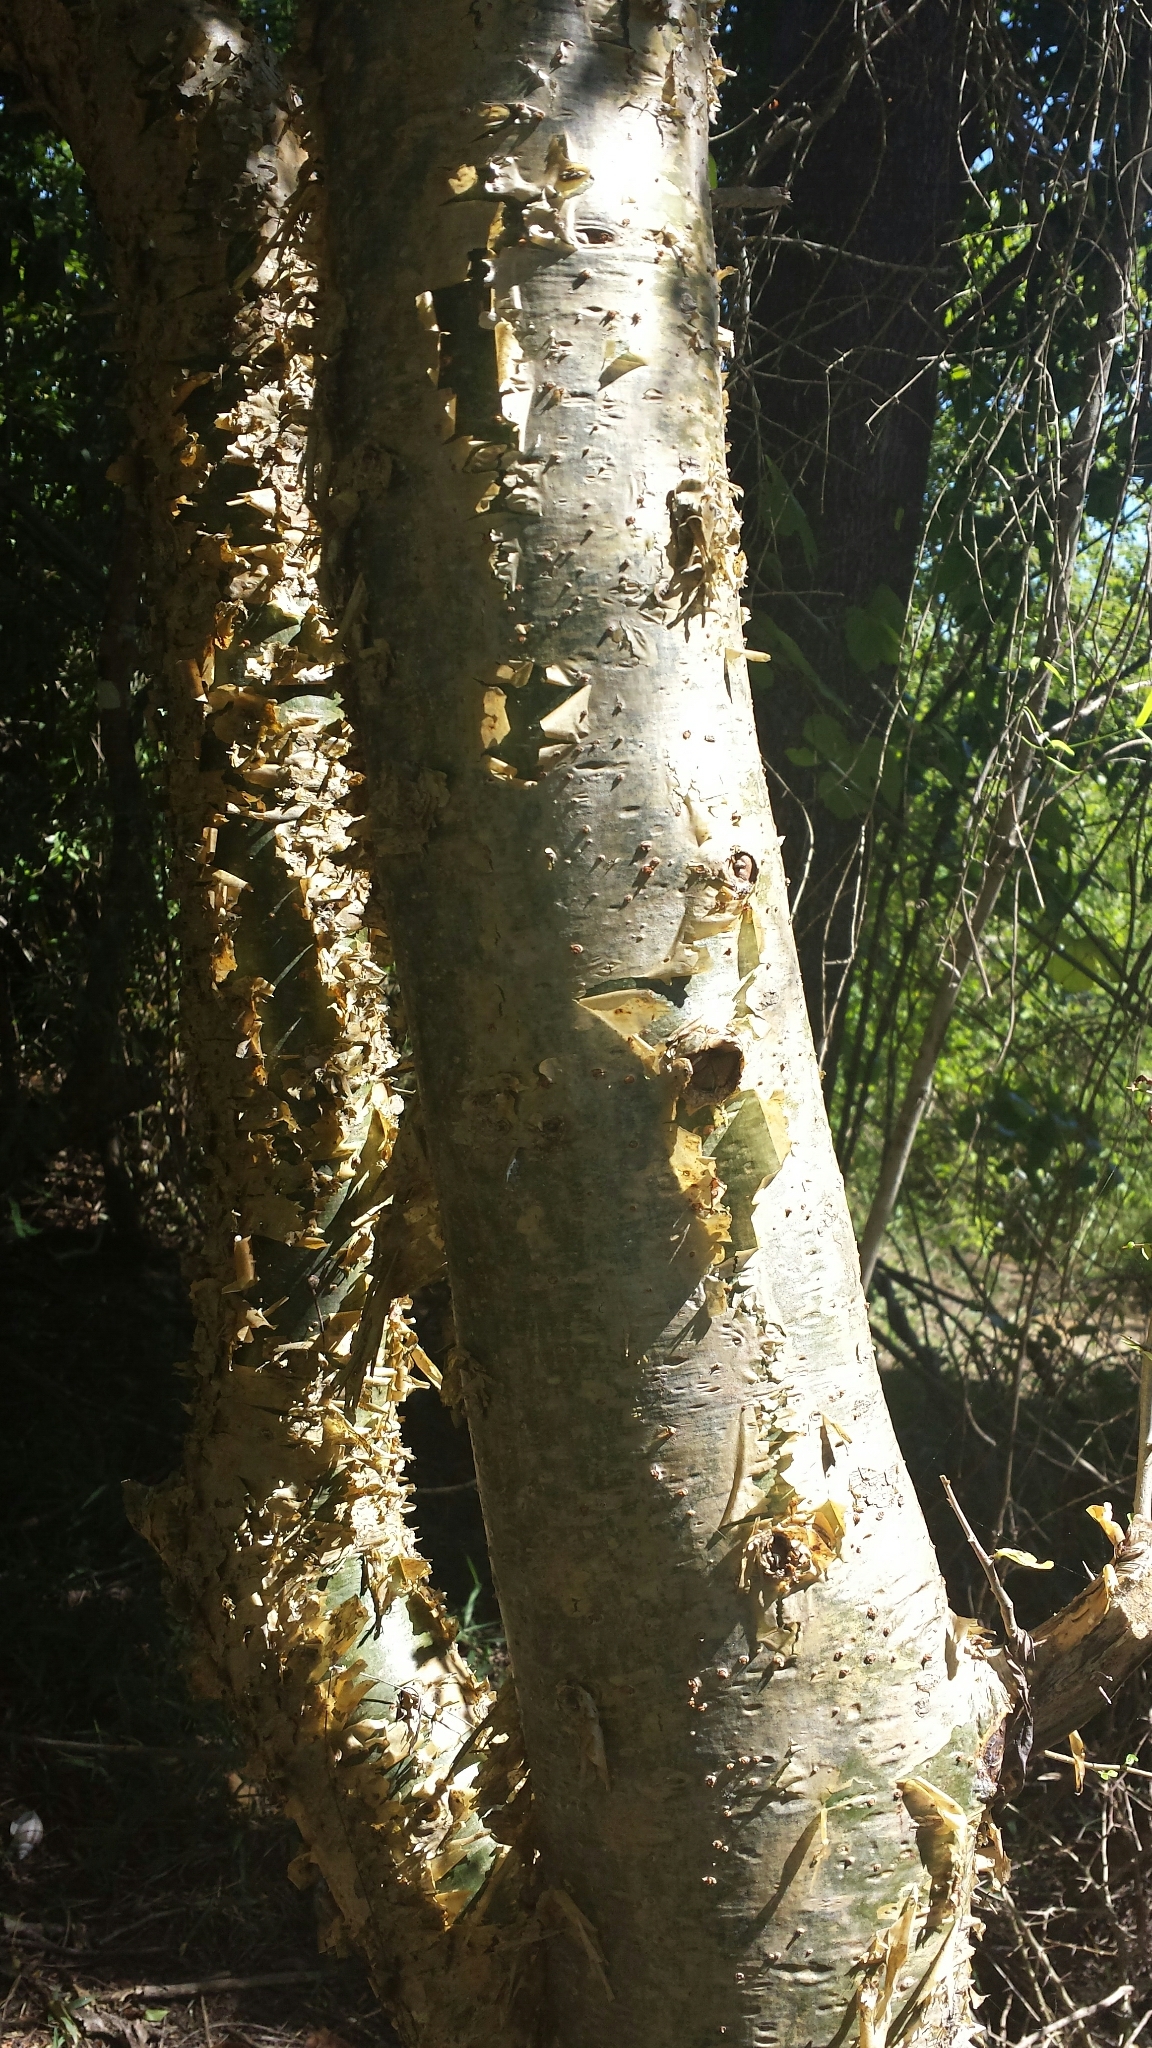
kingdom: Plantae
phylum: Tracheophyta
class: Magnoliopsida
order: Sapindales
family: Burseraceae
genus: Commiphora
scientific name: Commiphora simplicifolia
